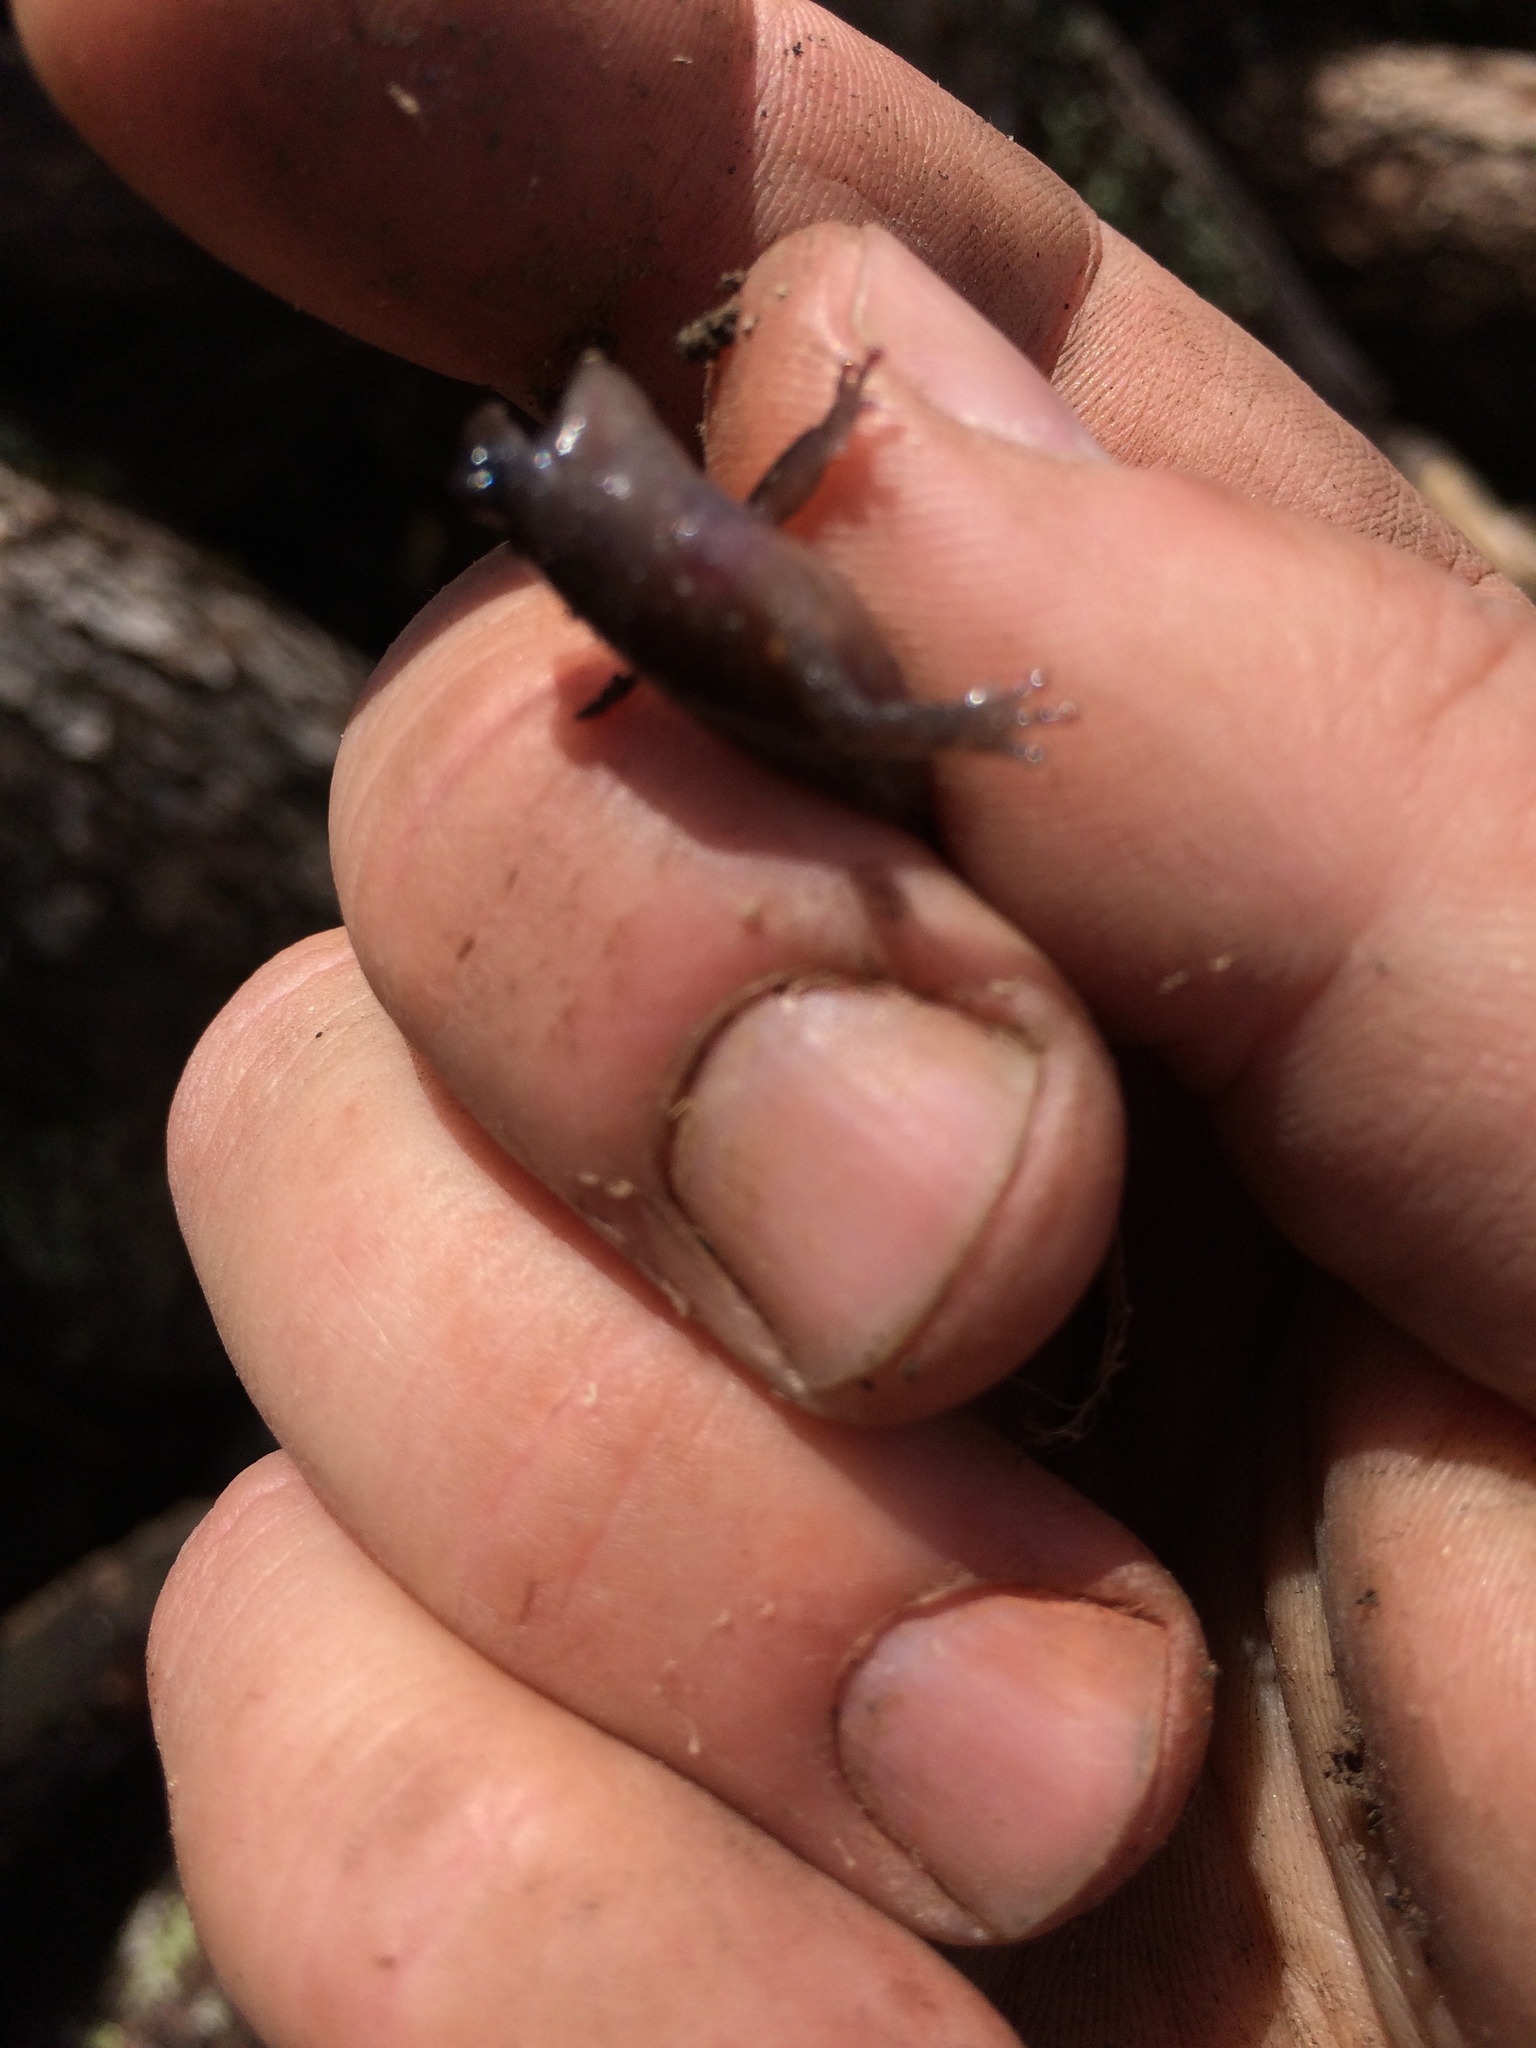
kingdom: Animalia
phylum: Chordata
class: Amphibia
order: Caudata
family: Plethodontidae
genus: Aneides
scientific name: Aneides lugubris
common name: Arboreal salamander
